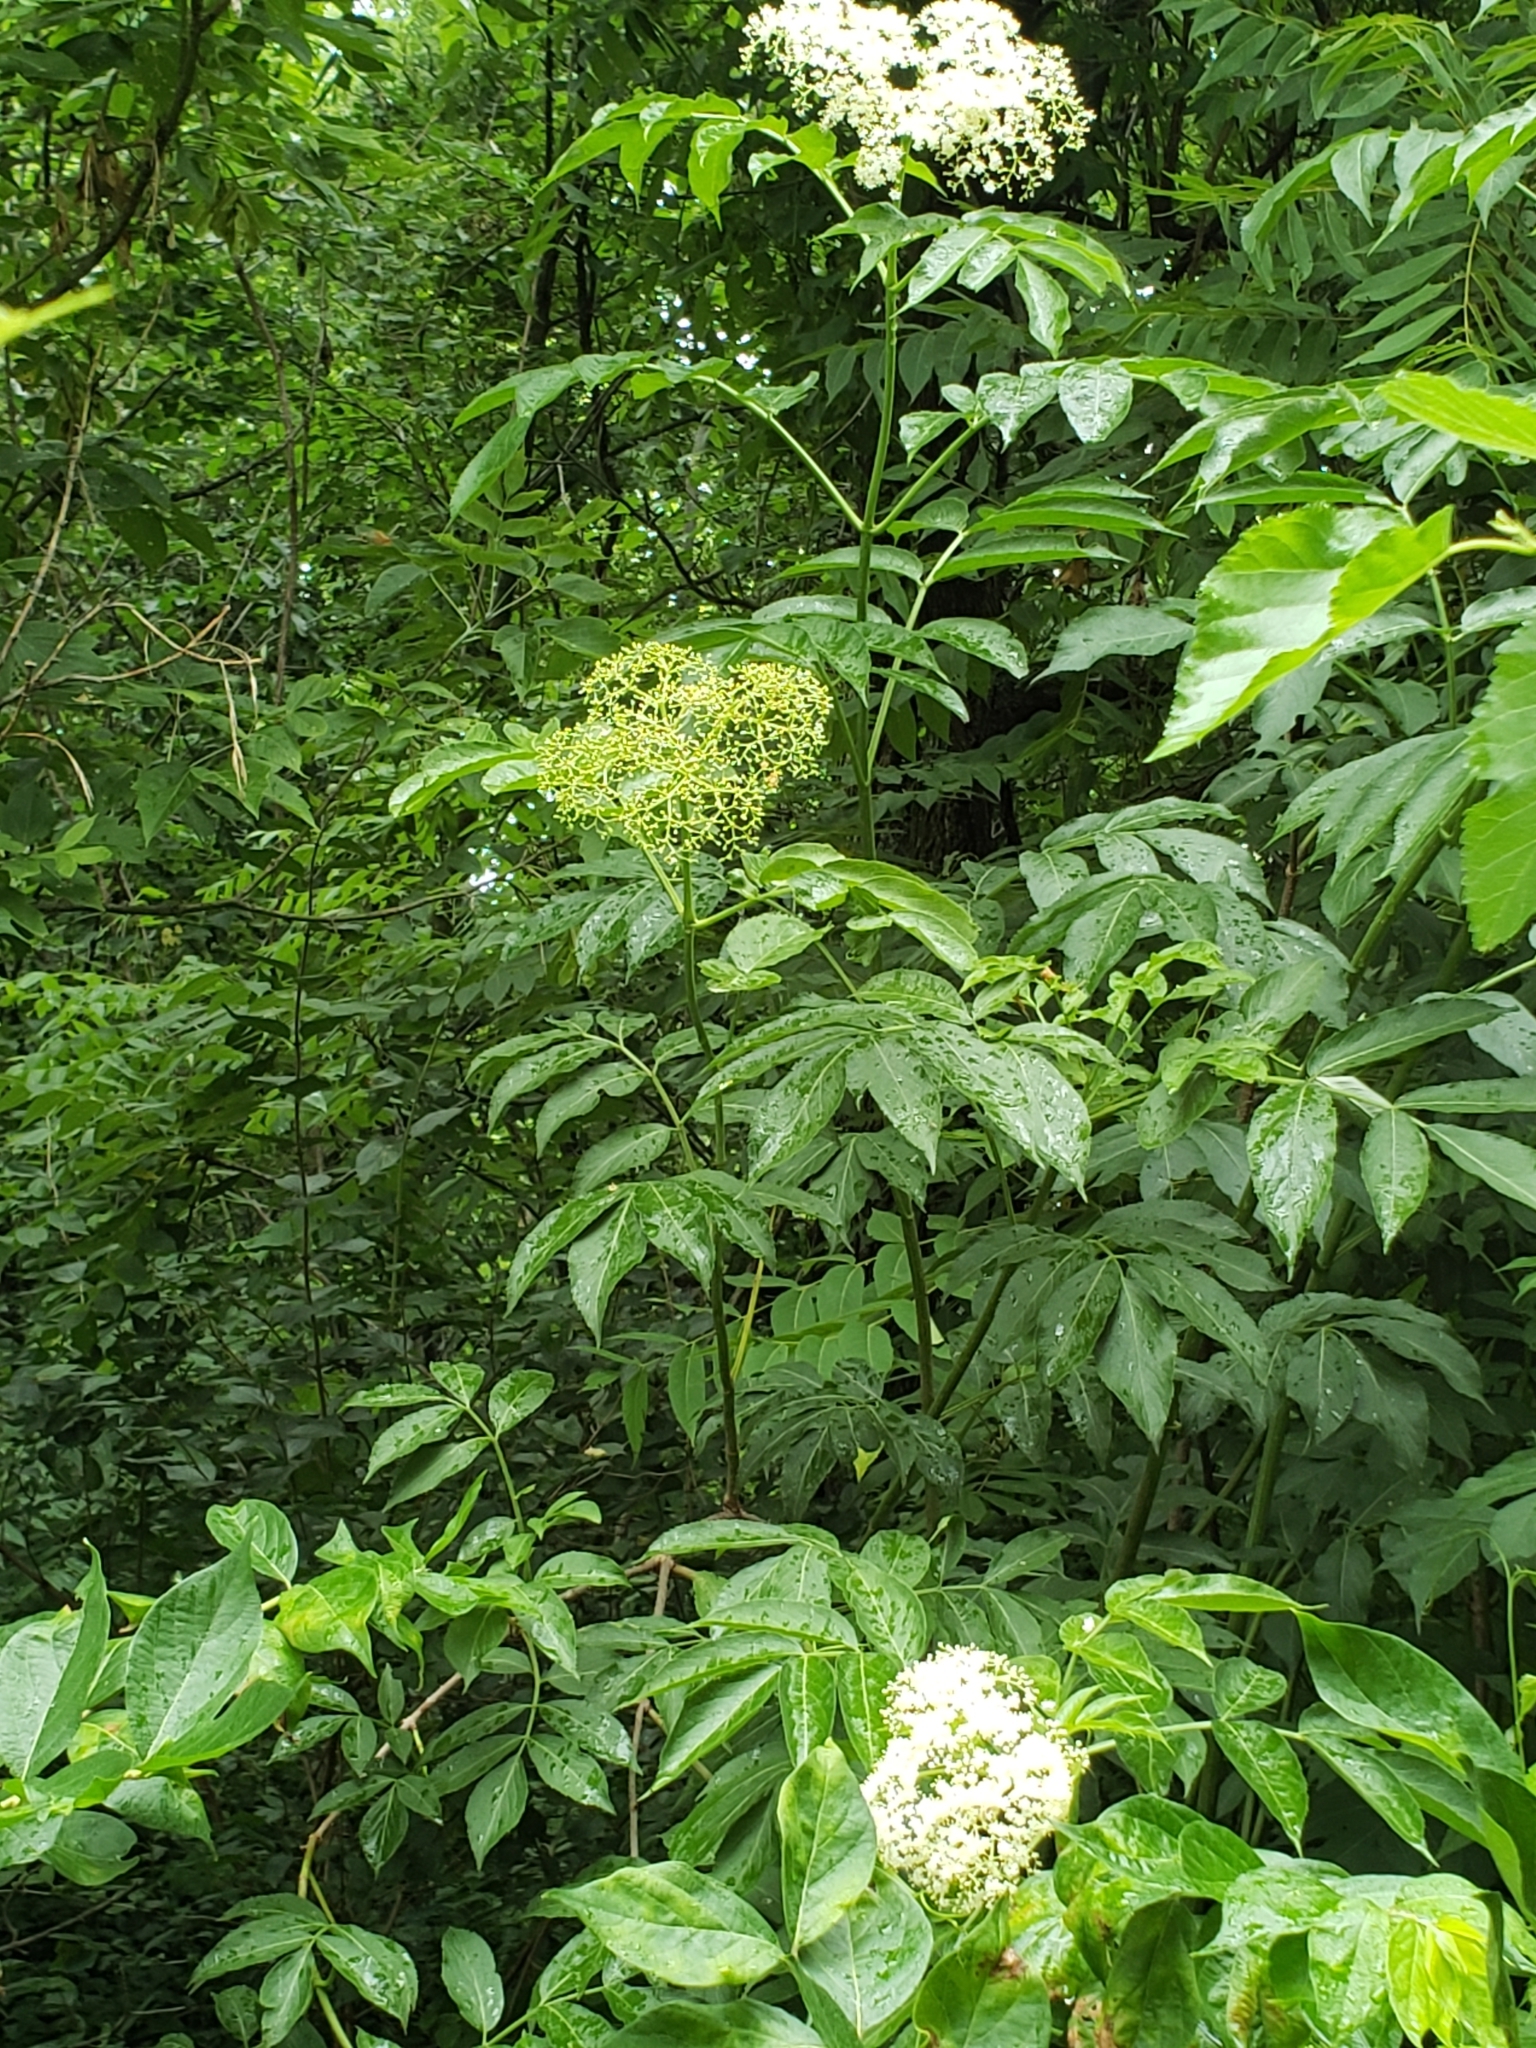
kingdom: Plantae
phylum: Tracheophyta
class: Magnoliopsida
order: Dipsacales
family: Viburnaceae
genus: Sambucus
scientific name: Sambucus canadensis
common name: American elder
